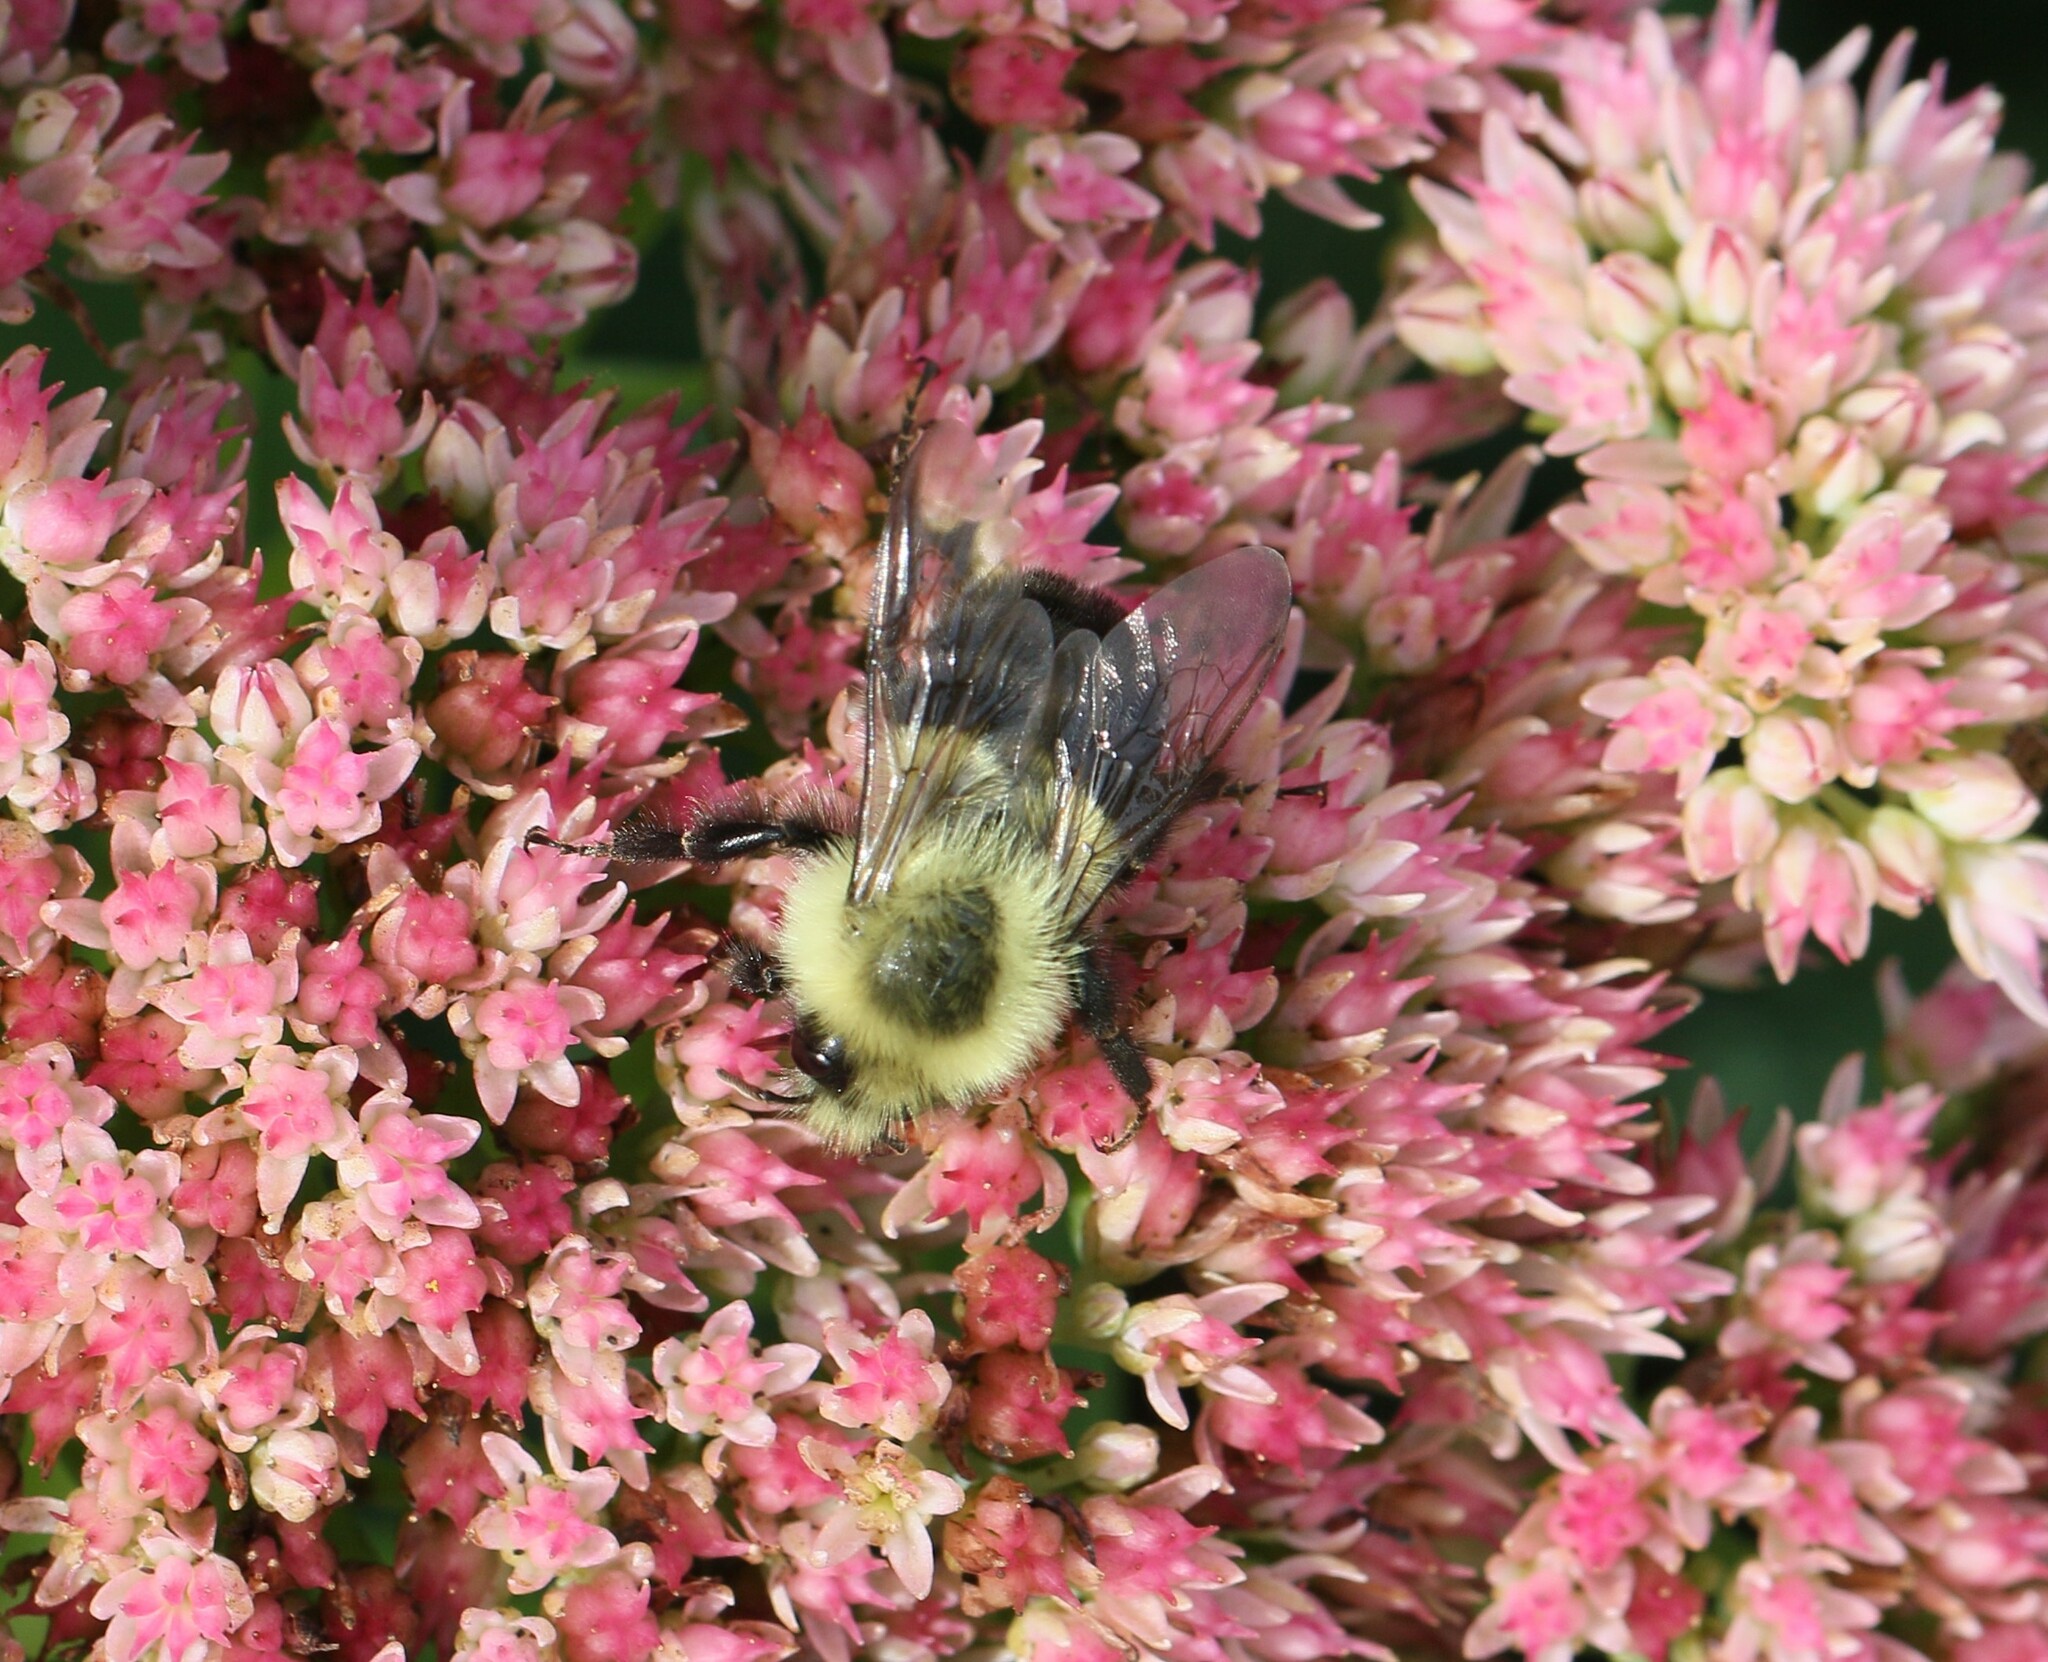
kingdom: Animalia
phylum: Arthropoda
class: Insecta
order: Hymenoptera
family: Apidae
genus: Bombus
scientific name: Bombus impatiens
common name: Common eastern bumble bee
